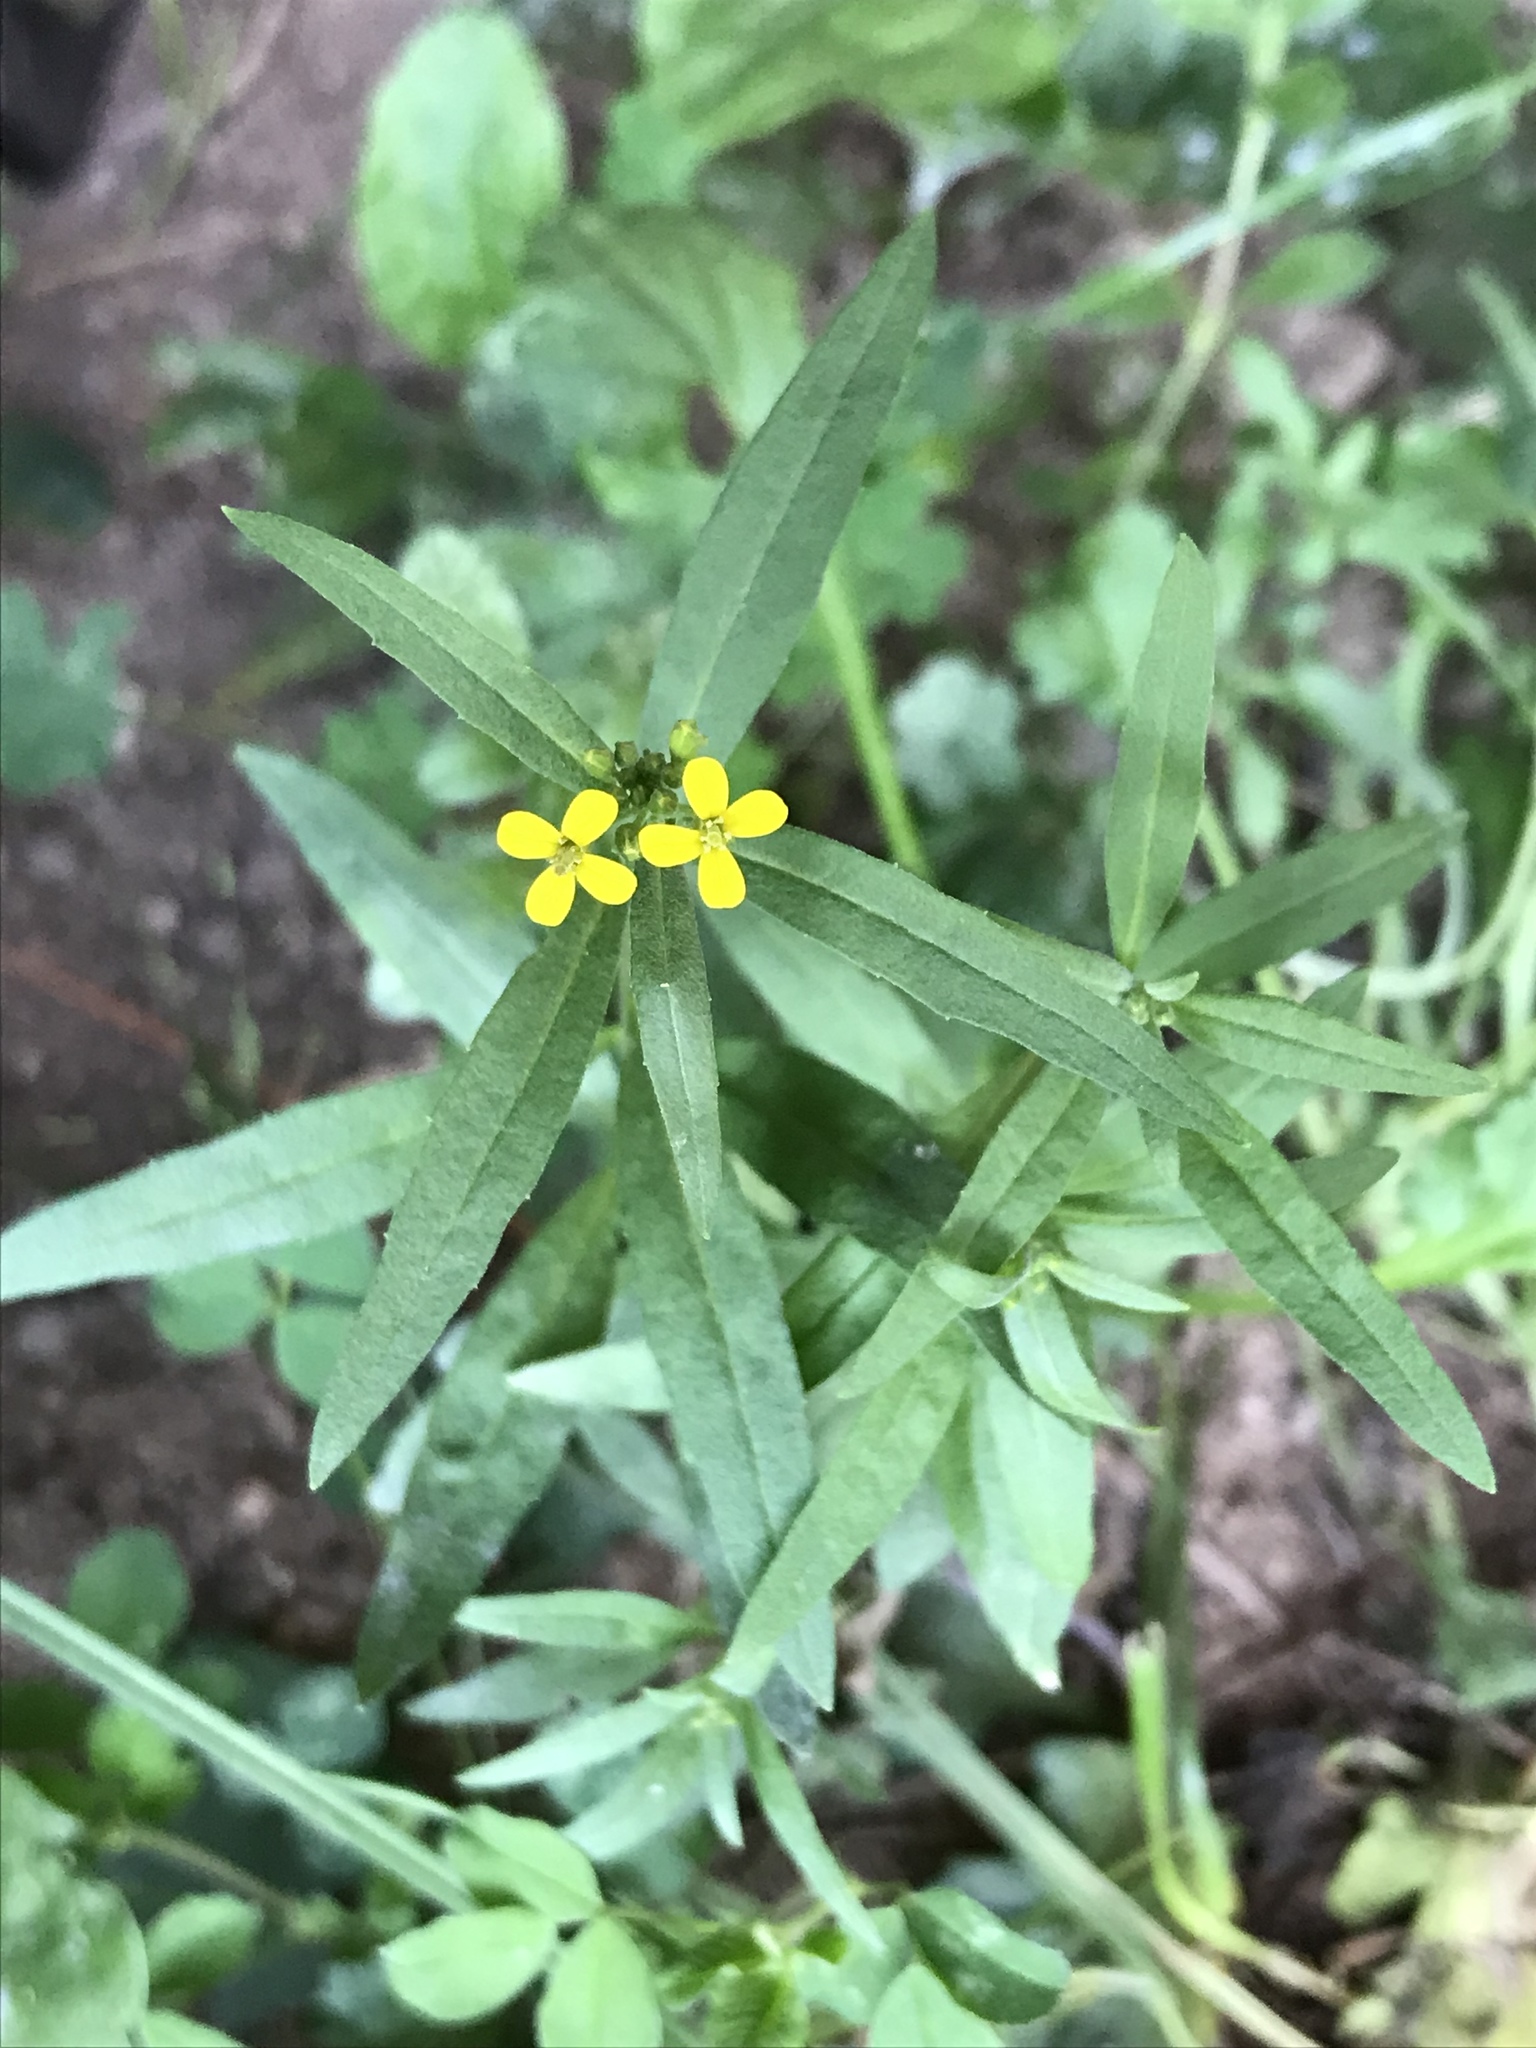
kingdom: Plantae
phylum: Tracheophyta
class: Magnoliopsida
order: Brassicales
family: Brassicaceae
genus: Erysimum
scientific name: Erysimum cheiranthoides
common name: Treacle mustard
